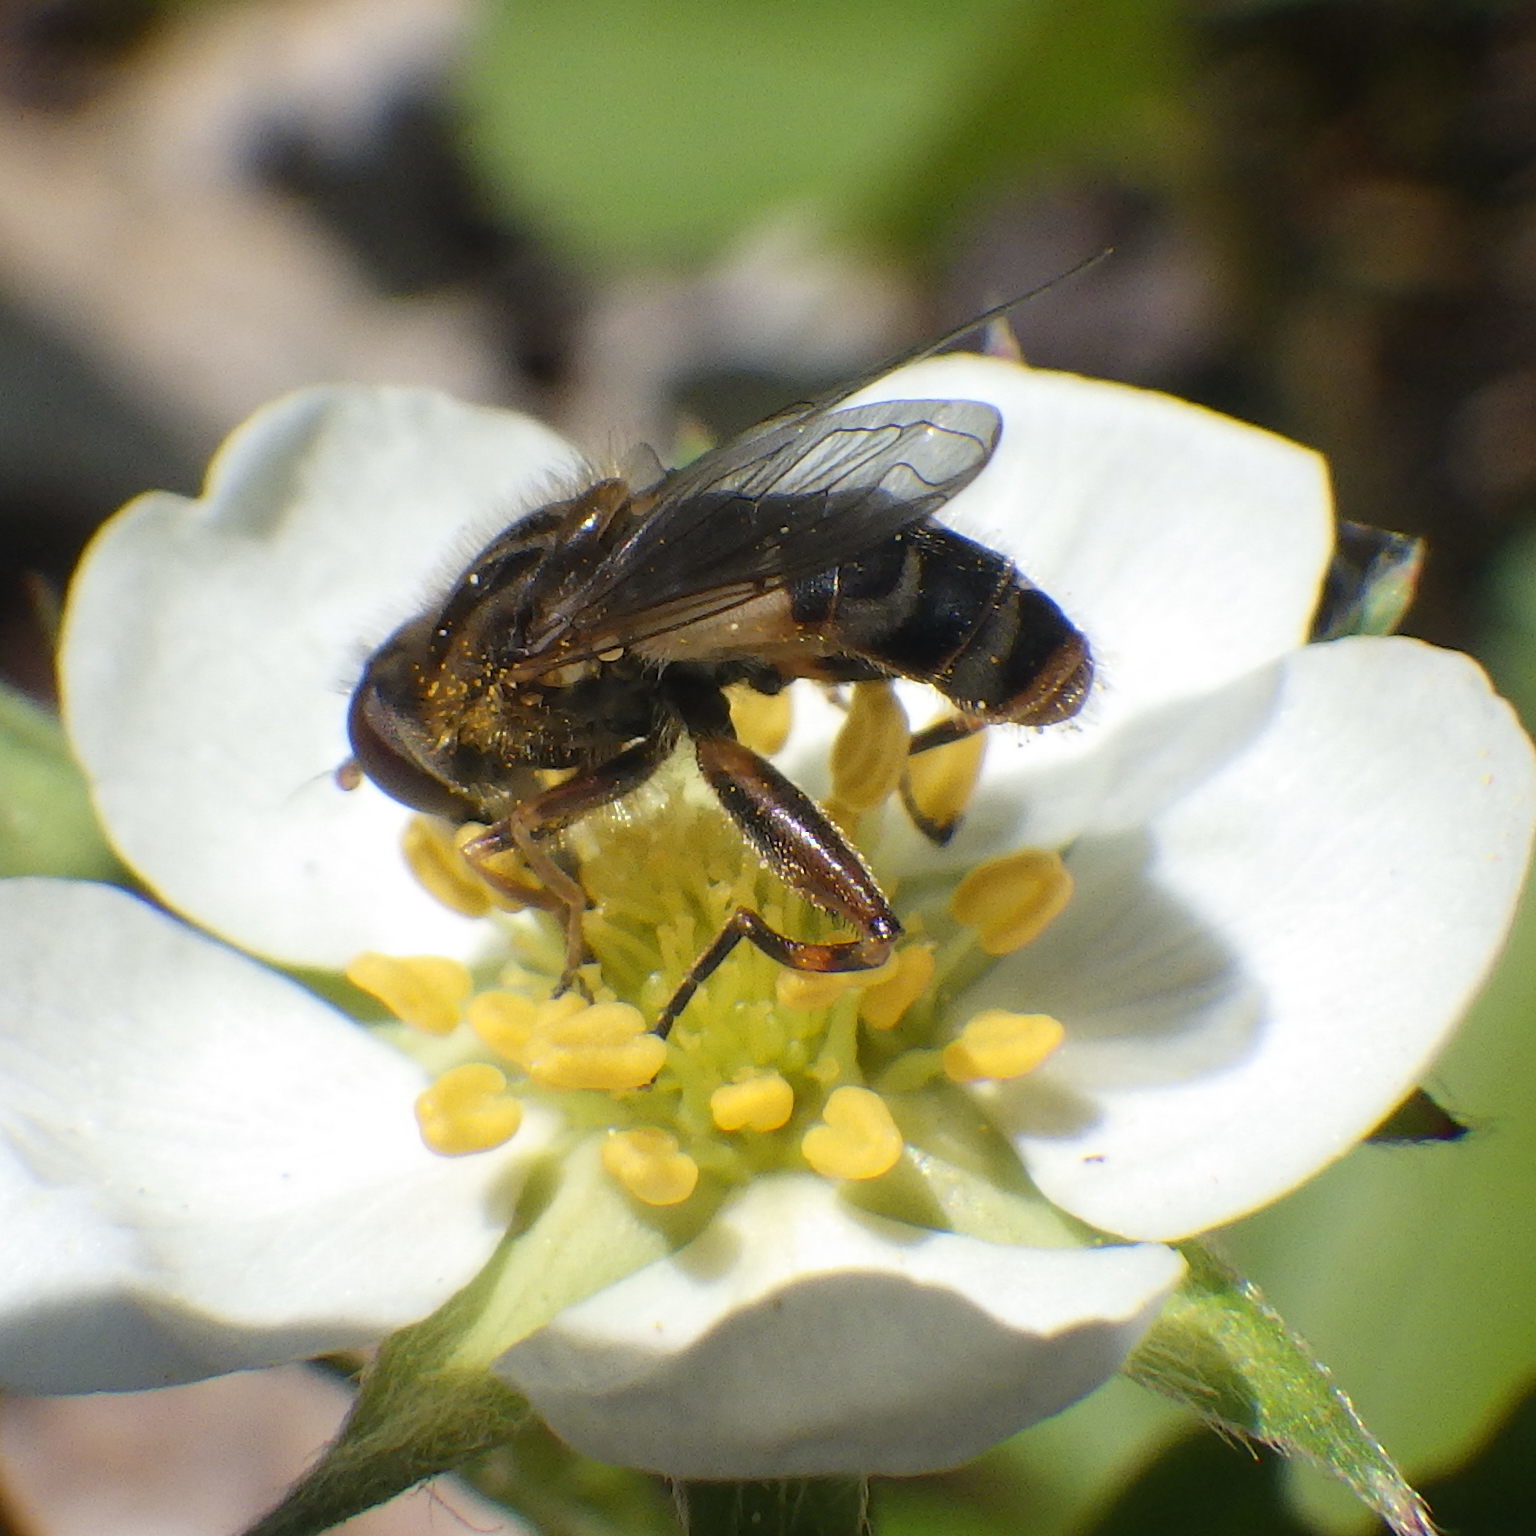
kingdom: Animalia
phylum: Arthropoda
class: Insecta
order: Diptera
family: Syrphidae
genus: Anasimyia
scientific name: Anasimyia bilinearis
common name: Two-lined swamp fly
